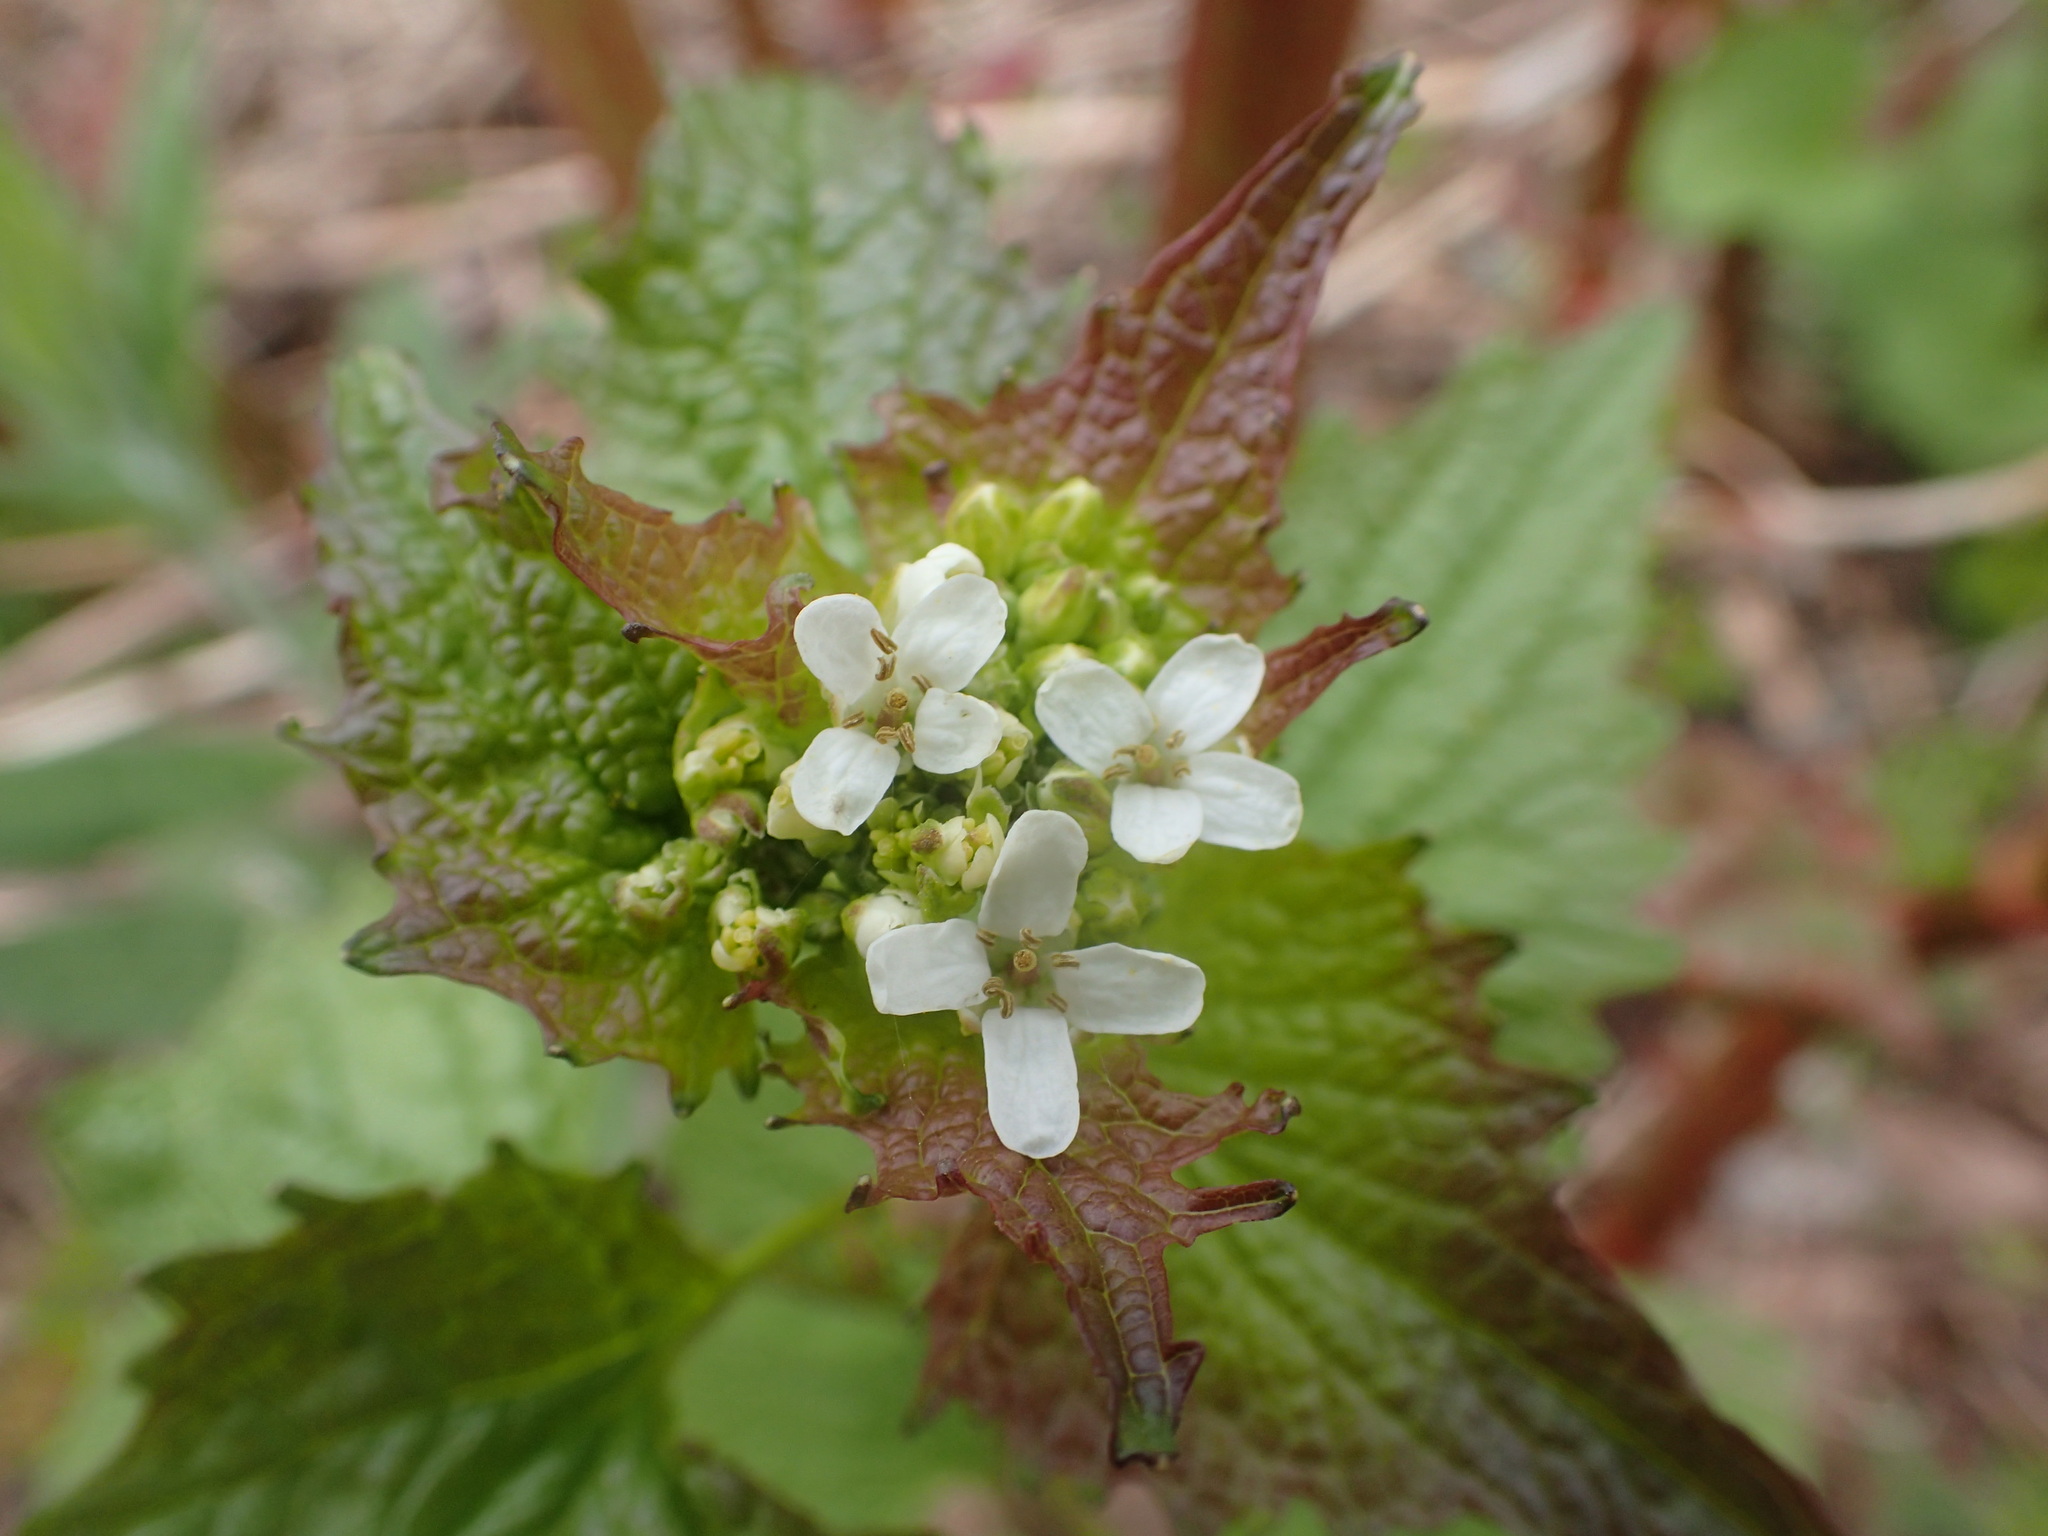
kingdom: Plantae
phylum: Tracheophyta
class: Magnoliopsida
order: Brassicales
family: Brassicaceae
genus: Alliaria
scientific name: Alliaria petiolata
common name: Garlic mustard
